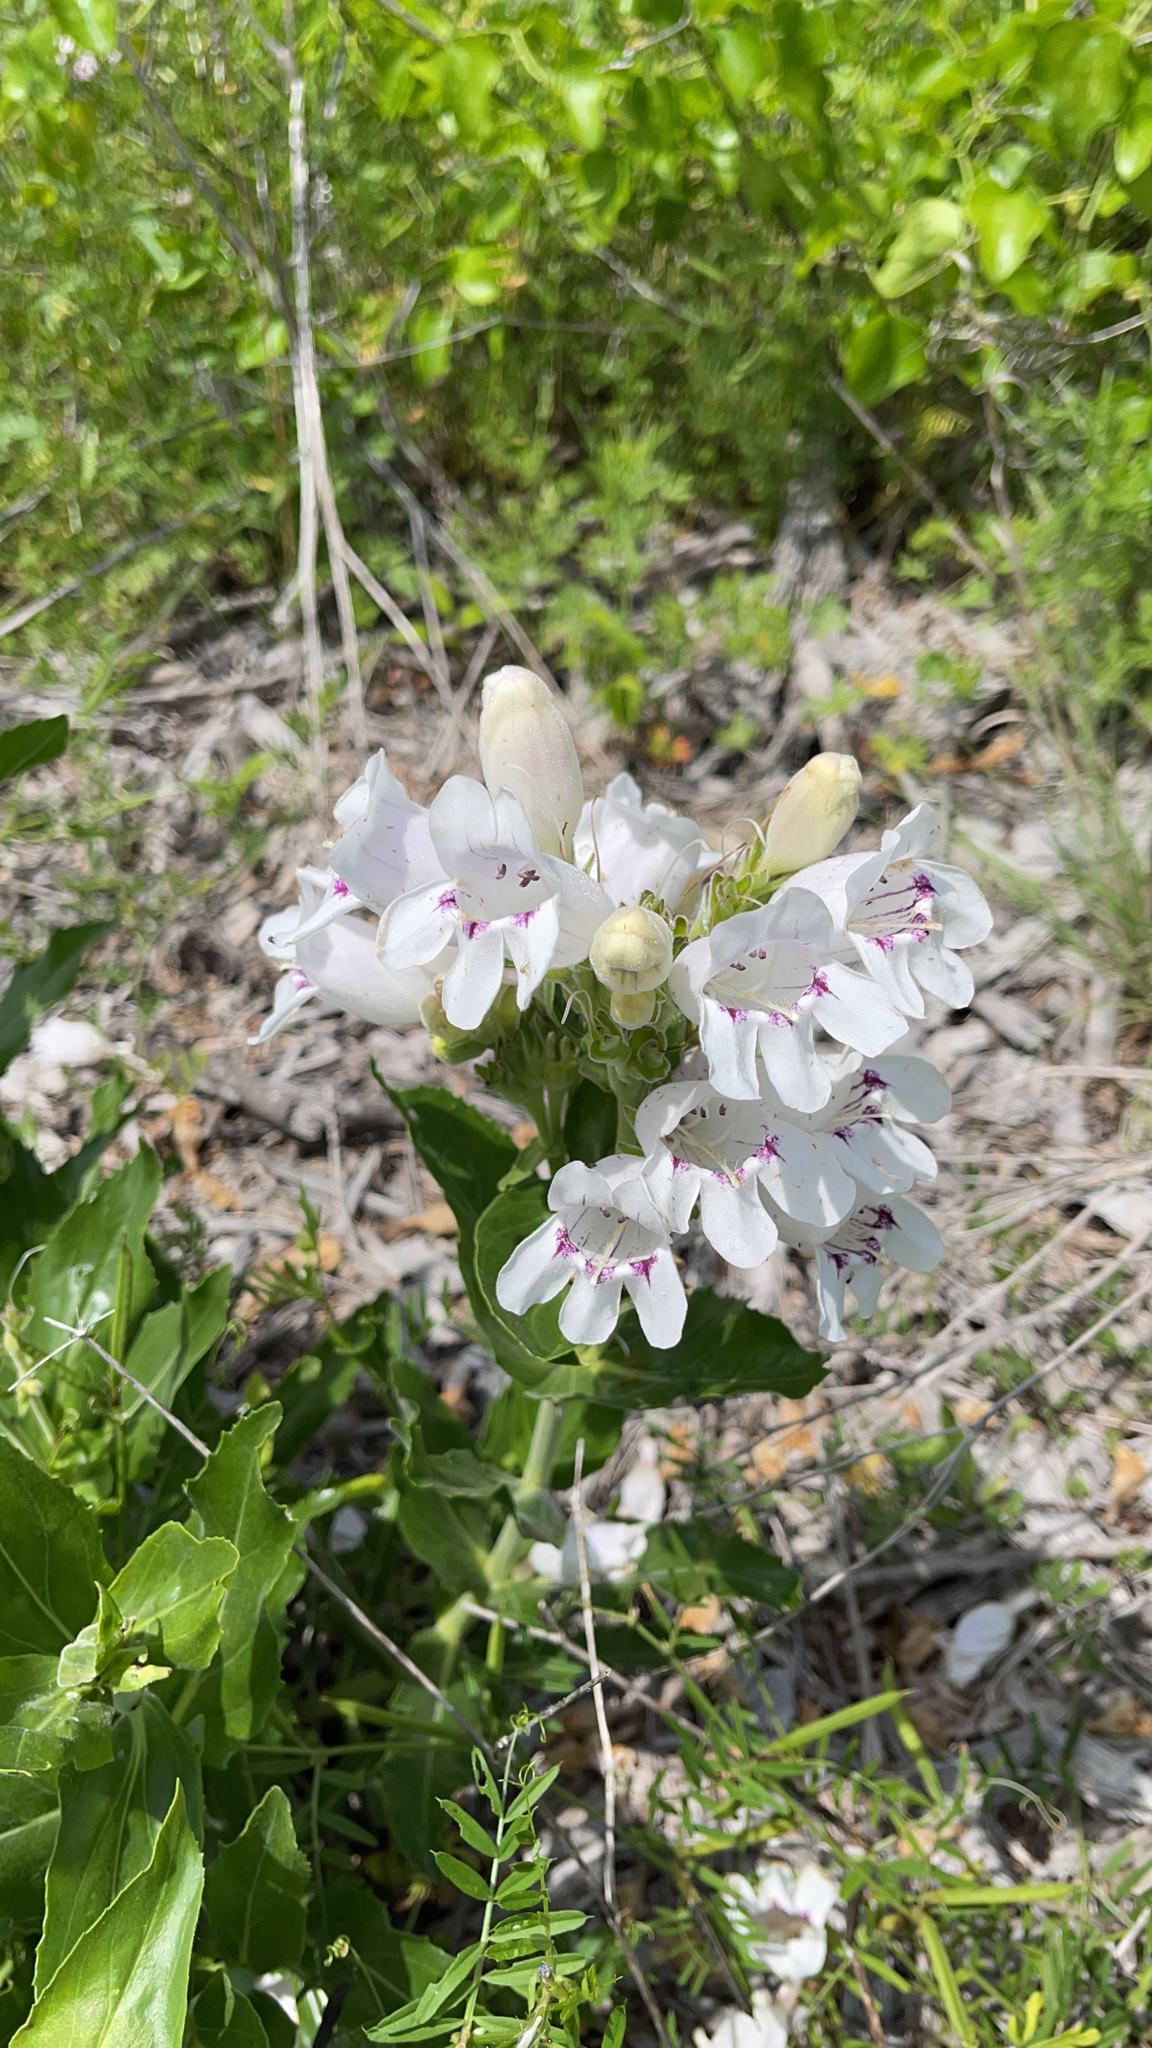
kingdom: Plantae
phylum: Tracheophyta
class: Magnoliopsida
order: Lamiales
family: Plantaginaceae
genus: Penstemon
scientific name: Penstemon cobaea
